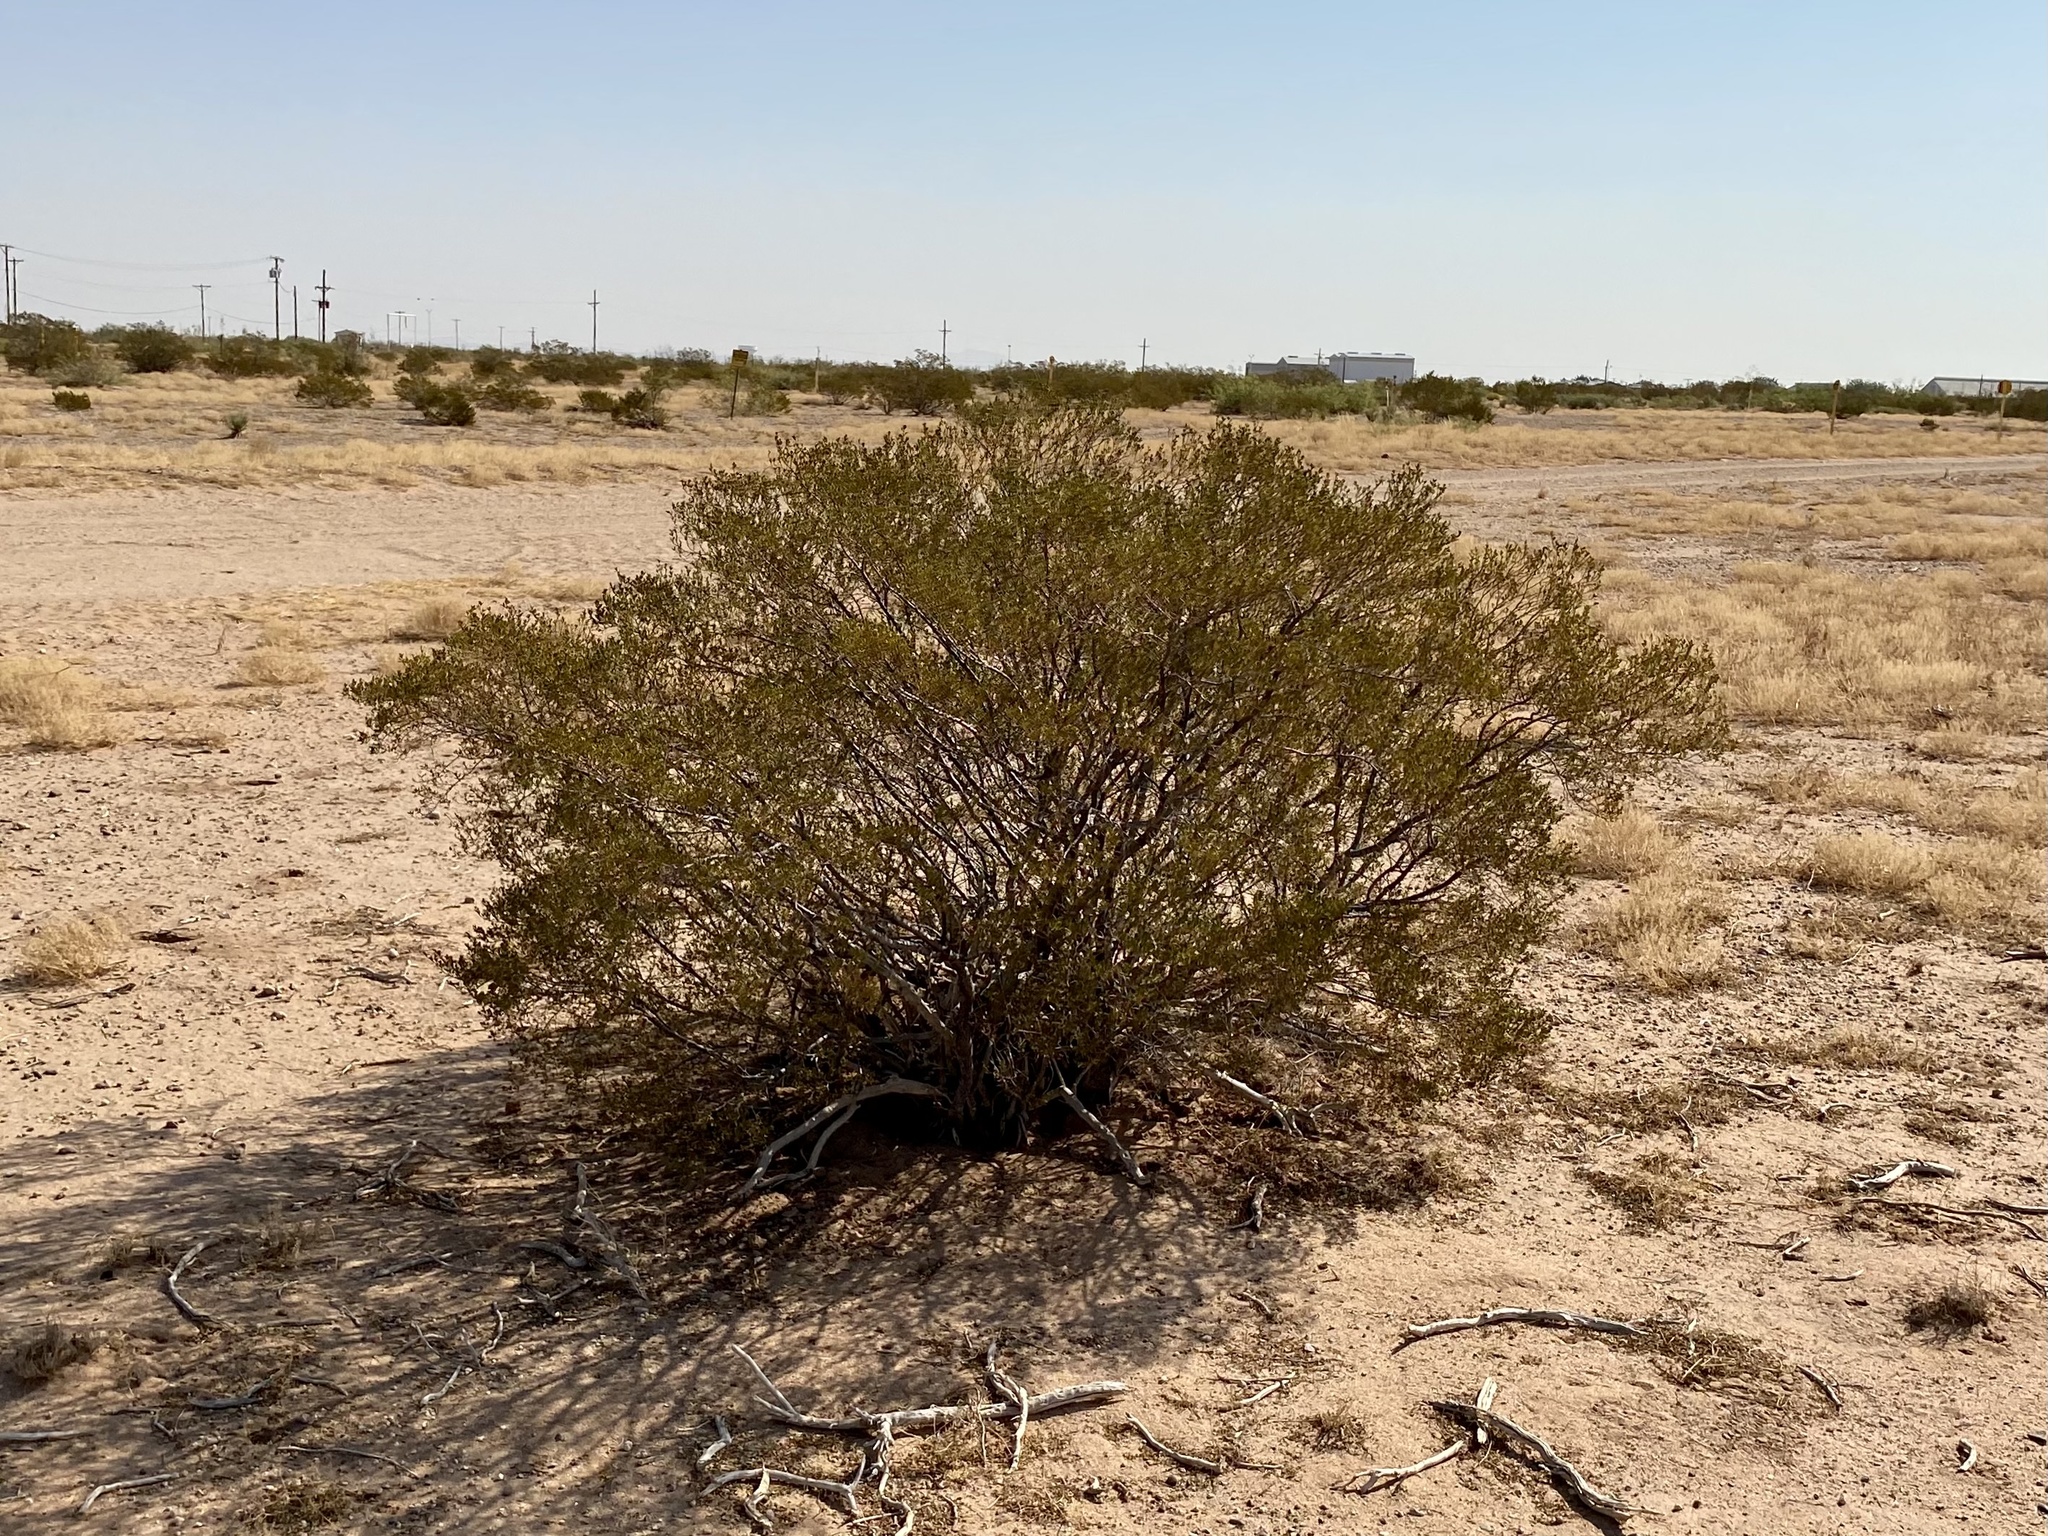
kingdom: Plantae
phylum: Tracheophyta
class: Magnoliopsida
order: Zygophyllales
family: Zygophyllaceae
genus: Larrea
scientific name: Larrea tridentata
